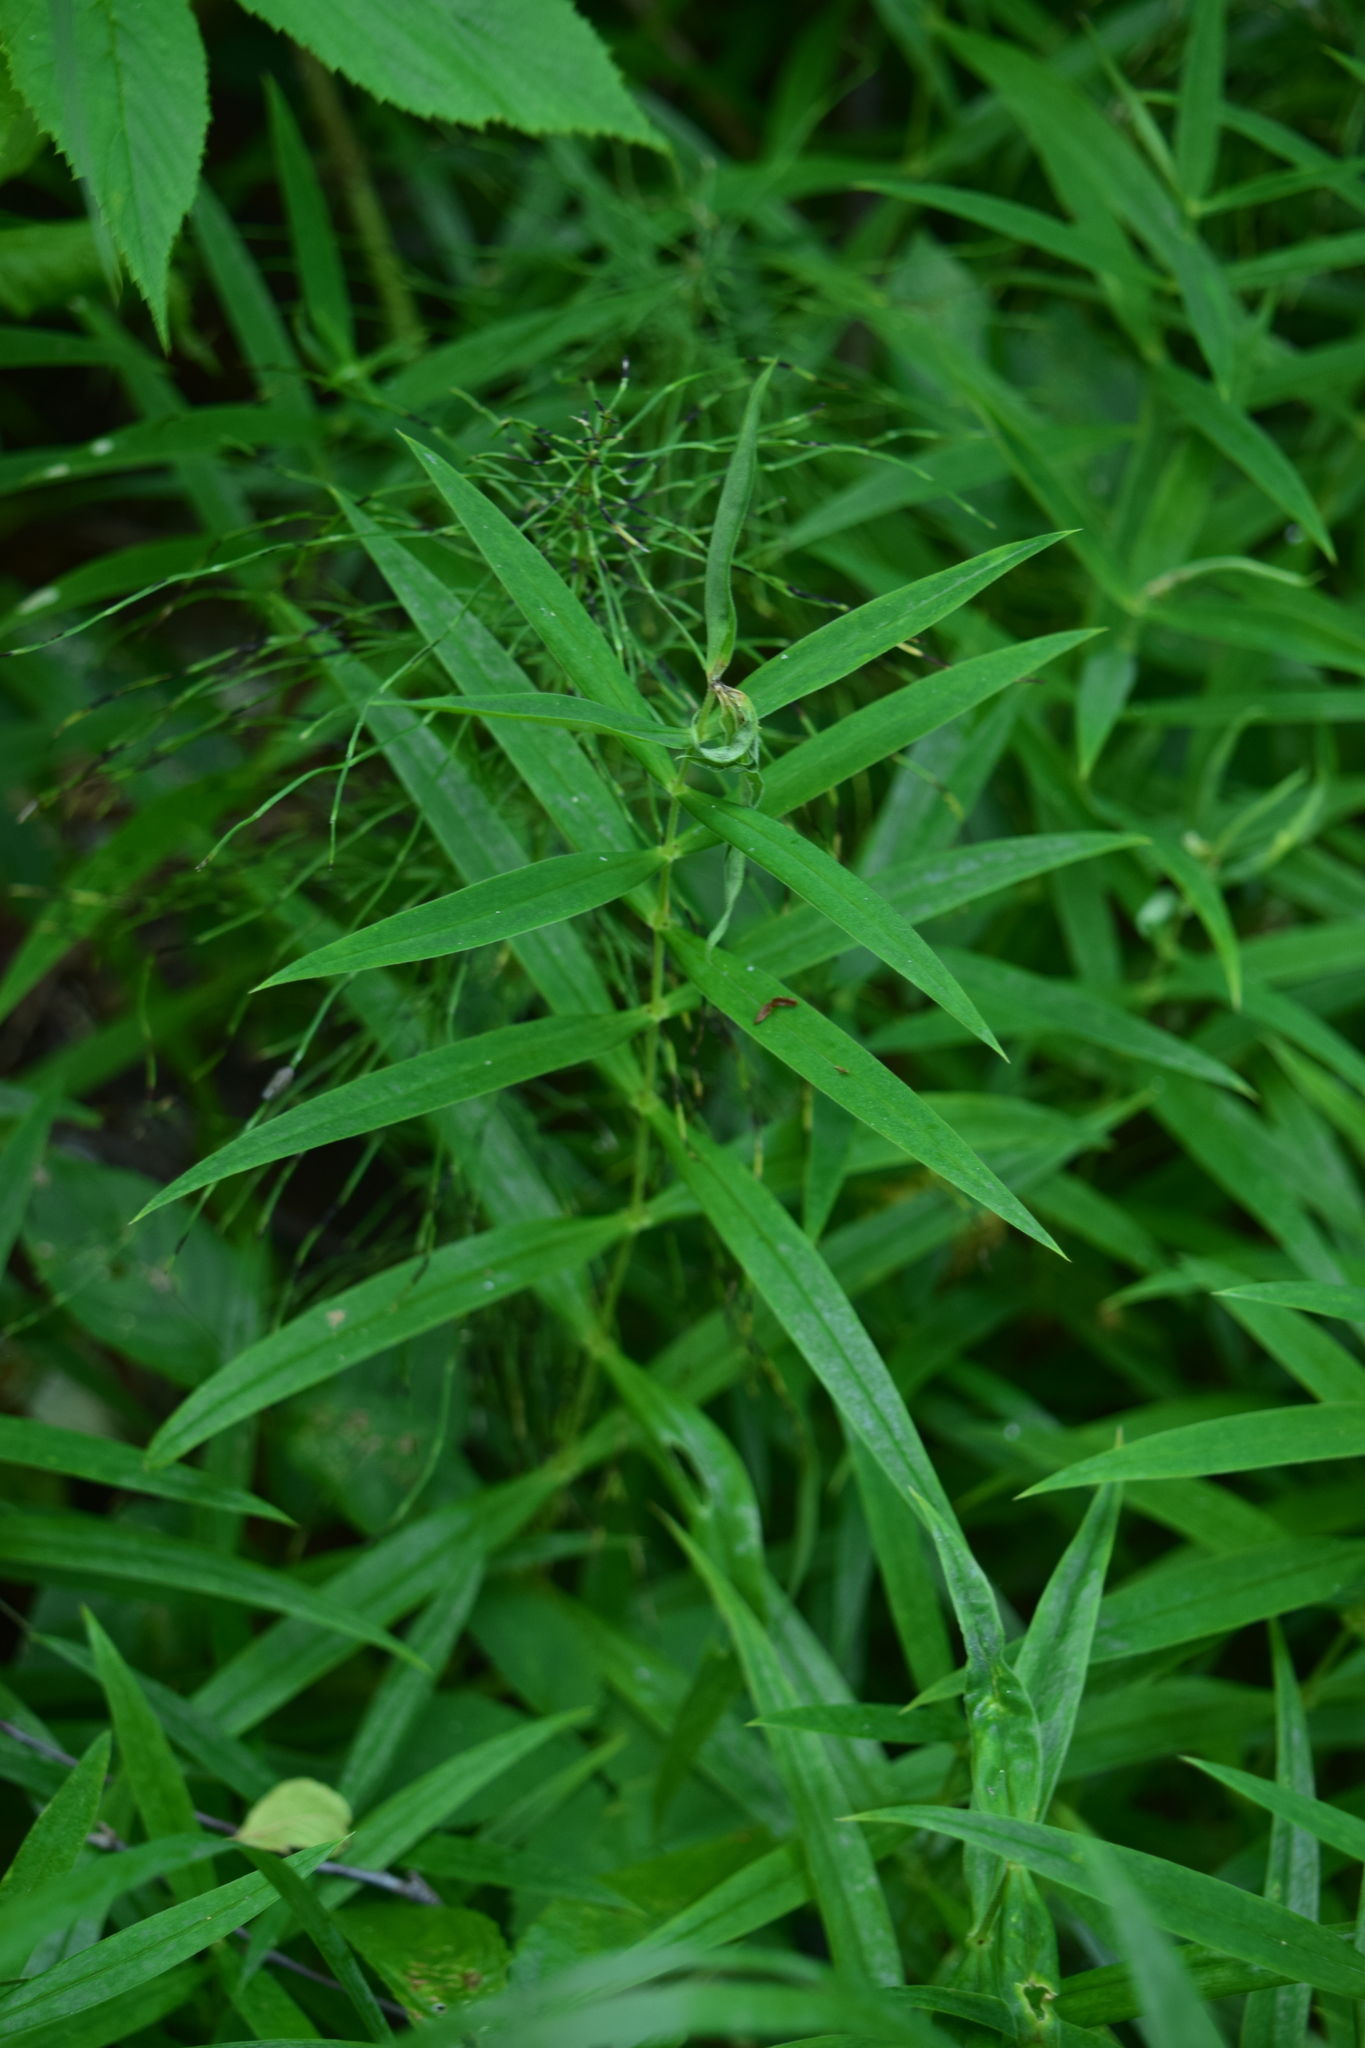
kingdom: Plantae
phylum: Tracheophyta
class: Magnoliopsida
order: Caryophyllales
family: Caryophyllaceae
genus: Rabelera
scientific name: Rabelera holostea
